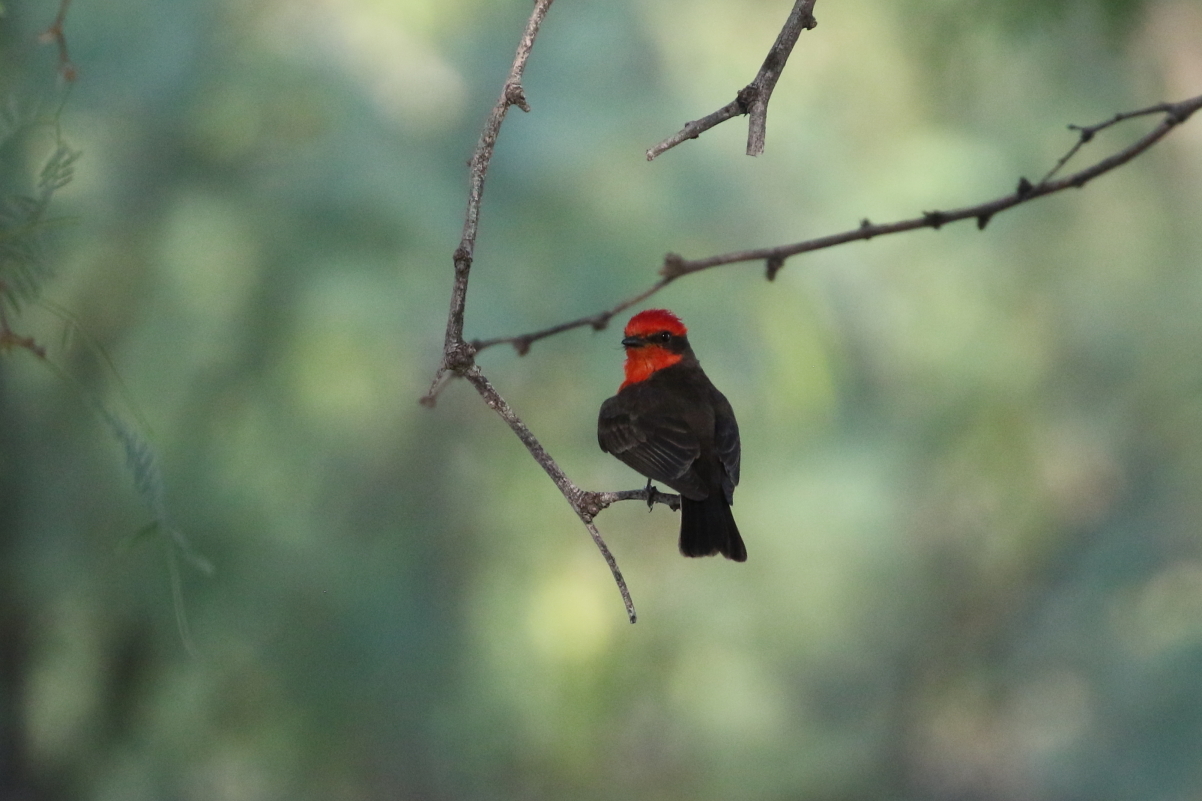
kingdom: Animalia
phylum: Chordata
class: Aves
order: Passeriformes
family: Tyrannidae
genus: Pyrocephalus
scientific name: Pyrocephalus rubinus
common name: Vermilion flycatcher
